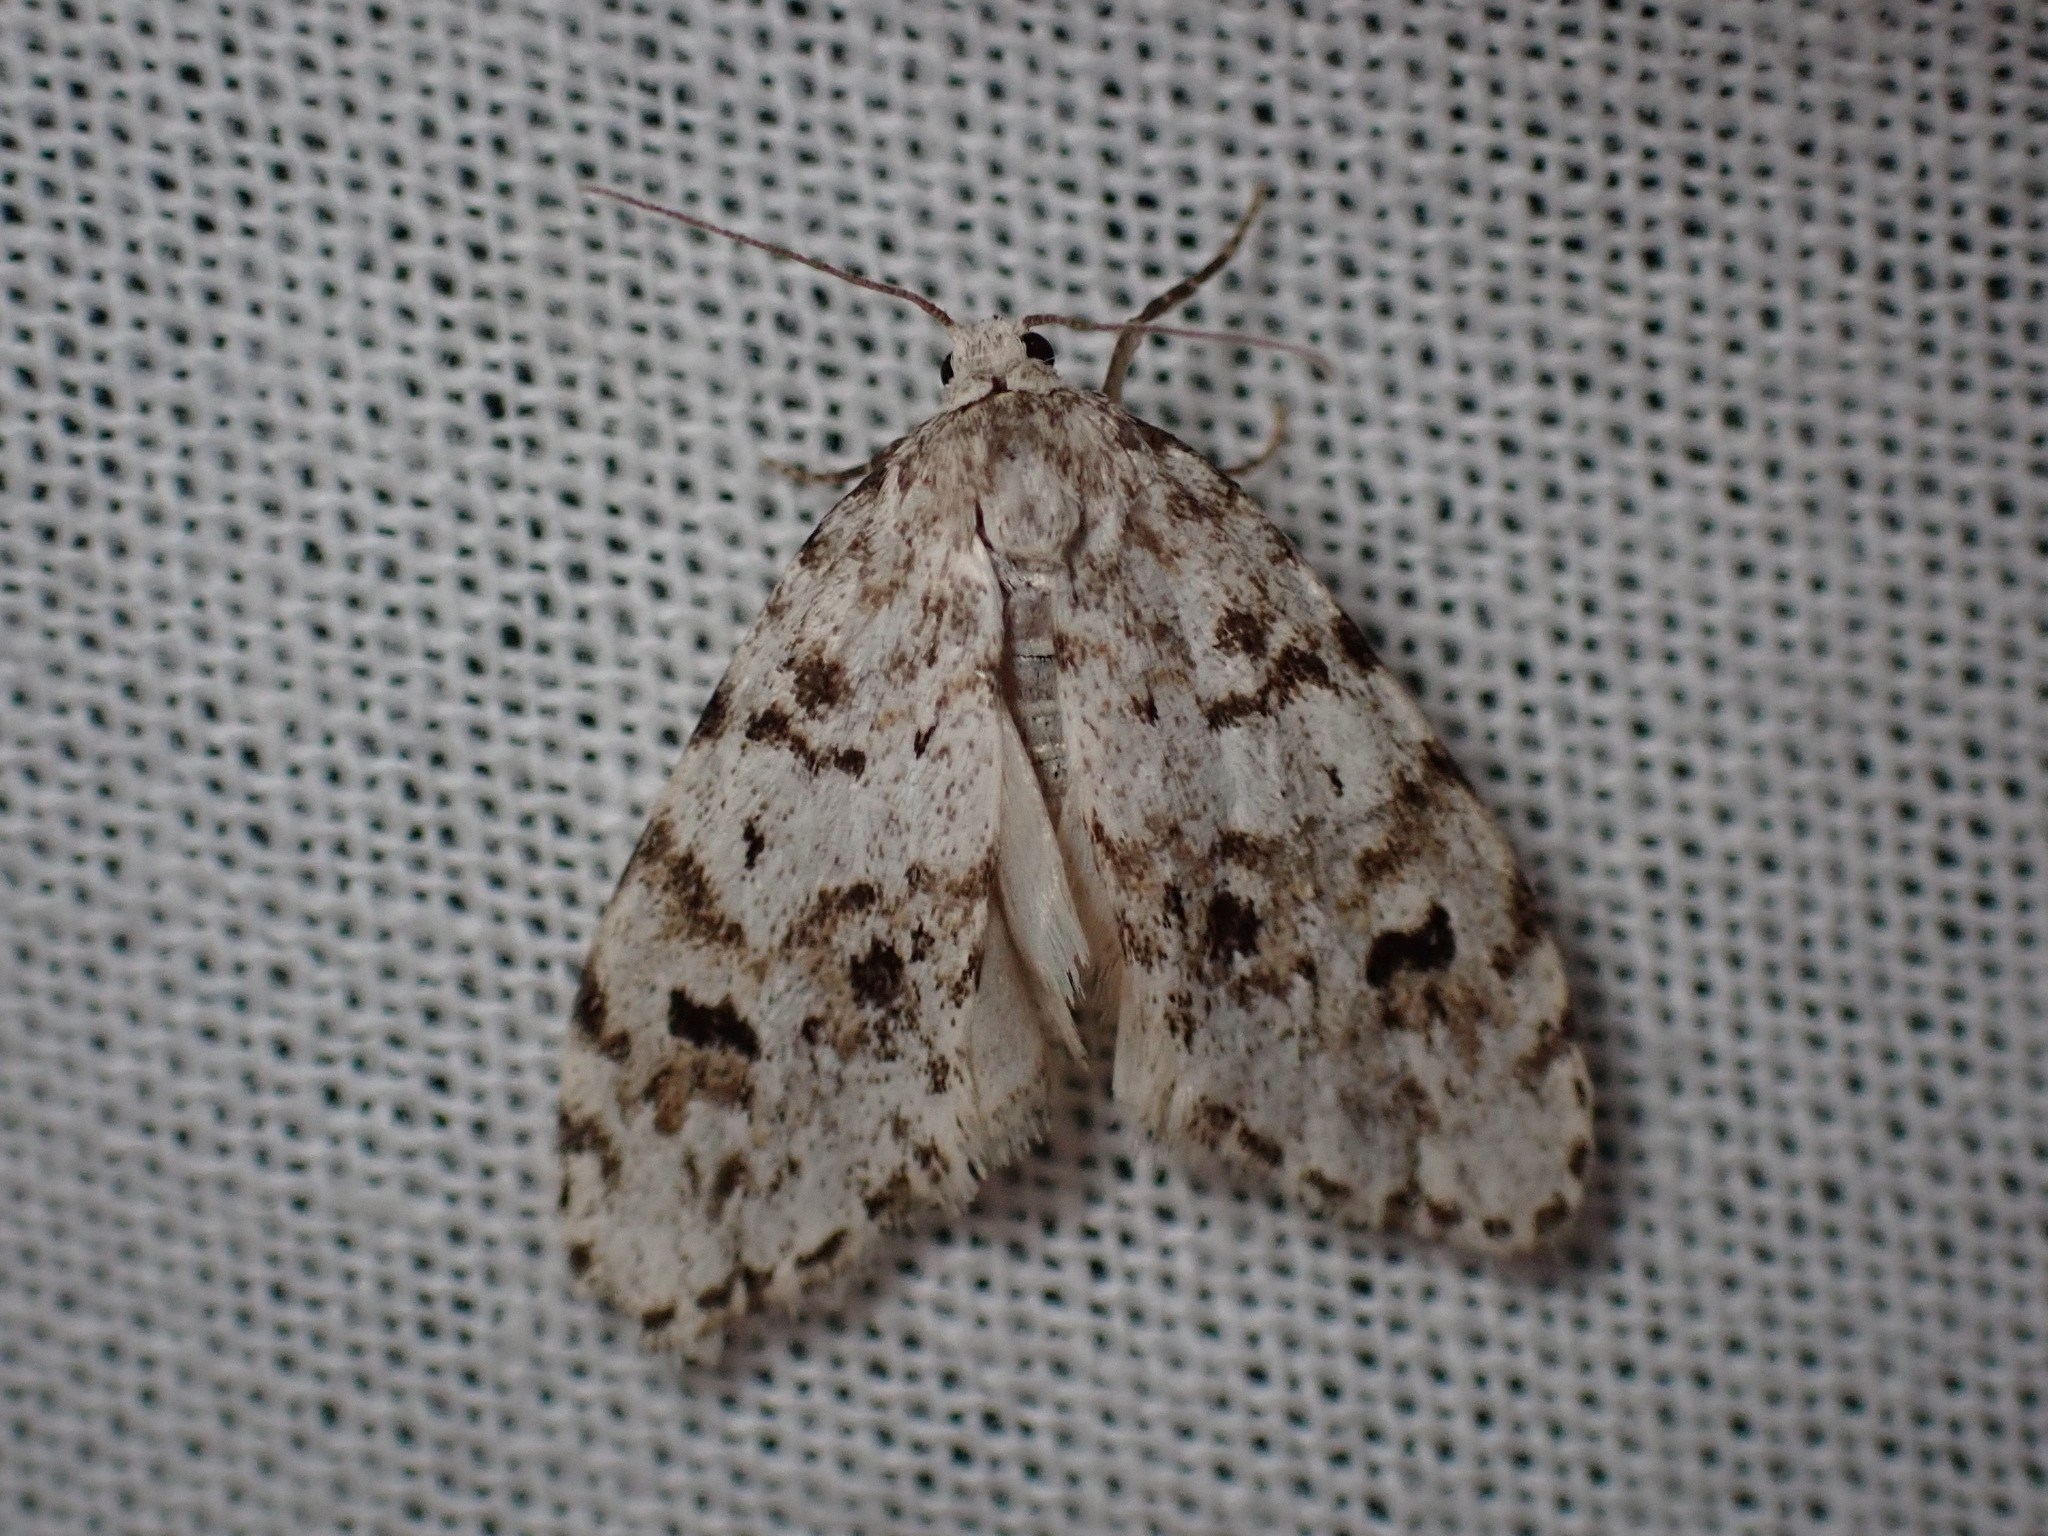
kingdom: Animalia
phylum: Arthropoda
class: Insecta
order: Lepidoptera
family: Erebidae
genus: Clemensia
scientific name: Clemensia umbrata
